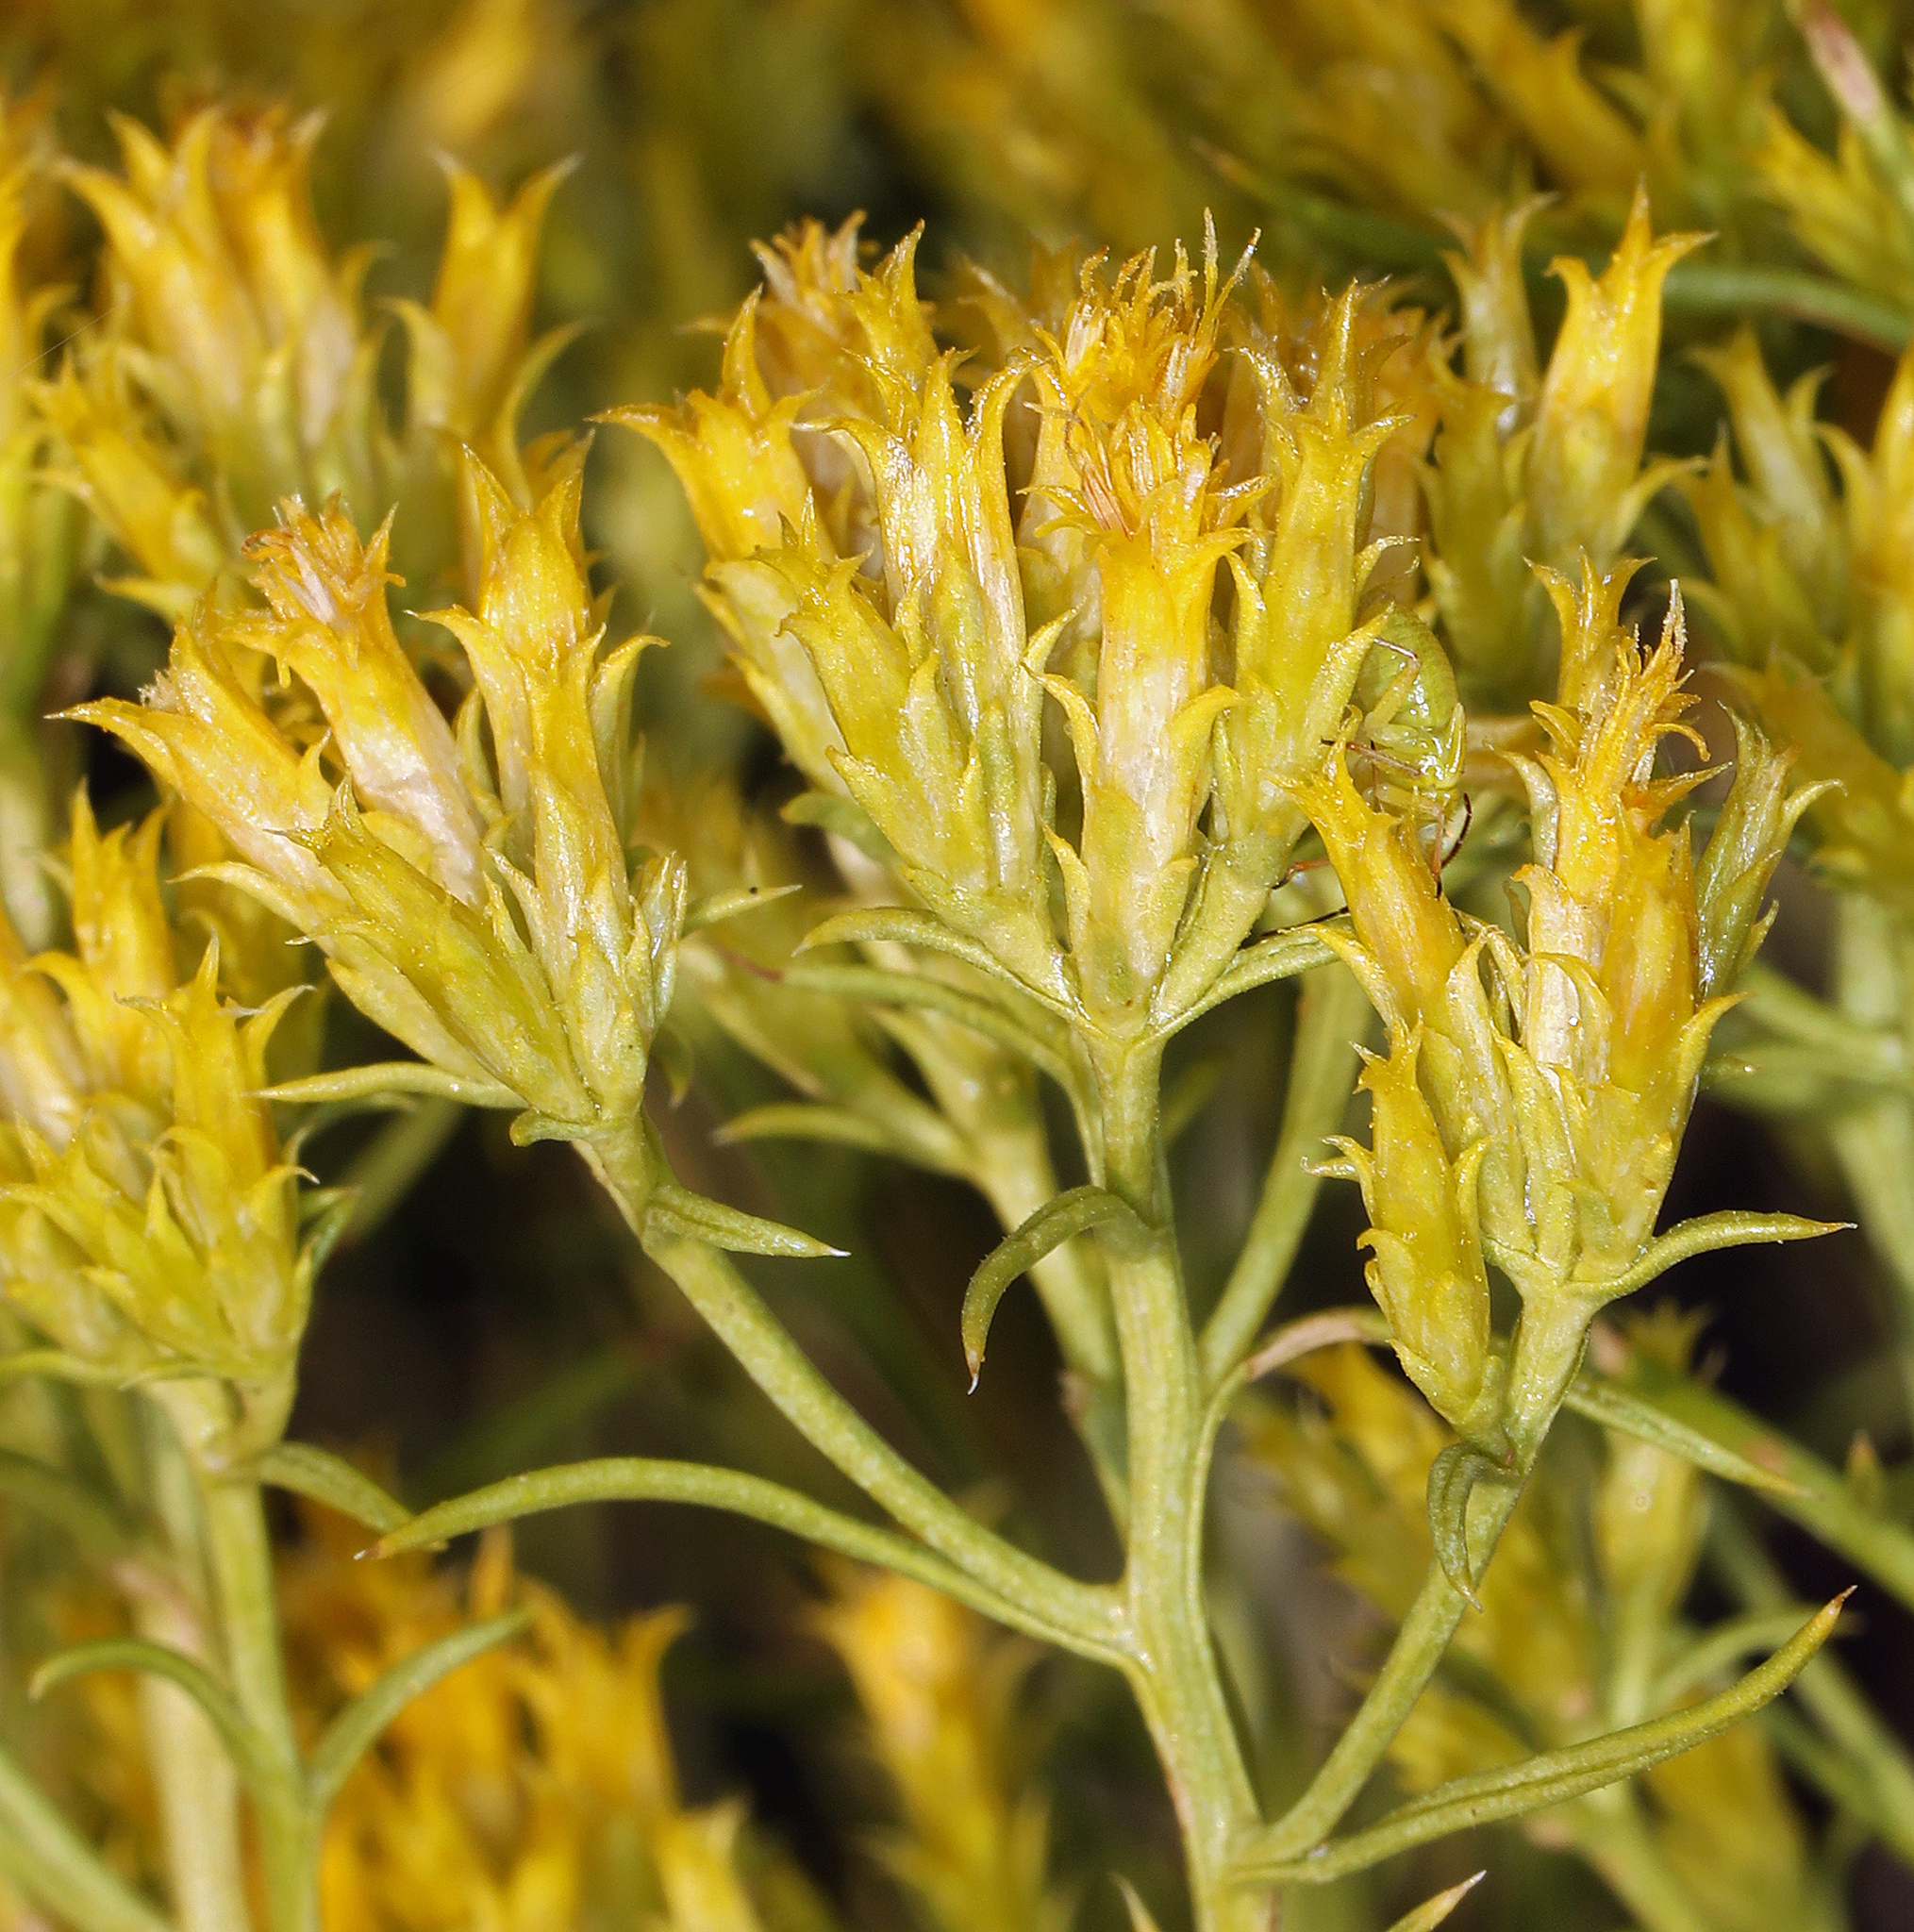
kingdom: Plantae
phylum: Tracheophyta
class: Magnoliopsida
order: Asterales
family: Asteraceae
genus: Chrysothamnus
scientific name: Chrysothamnus greenei
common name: Greene's rabbitbrush
